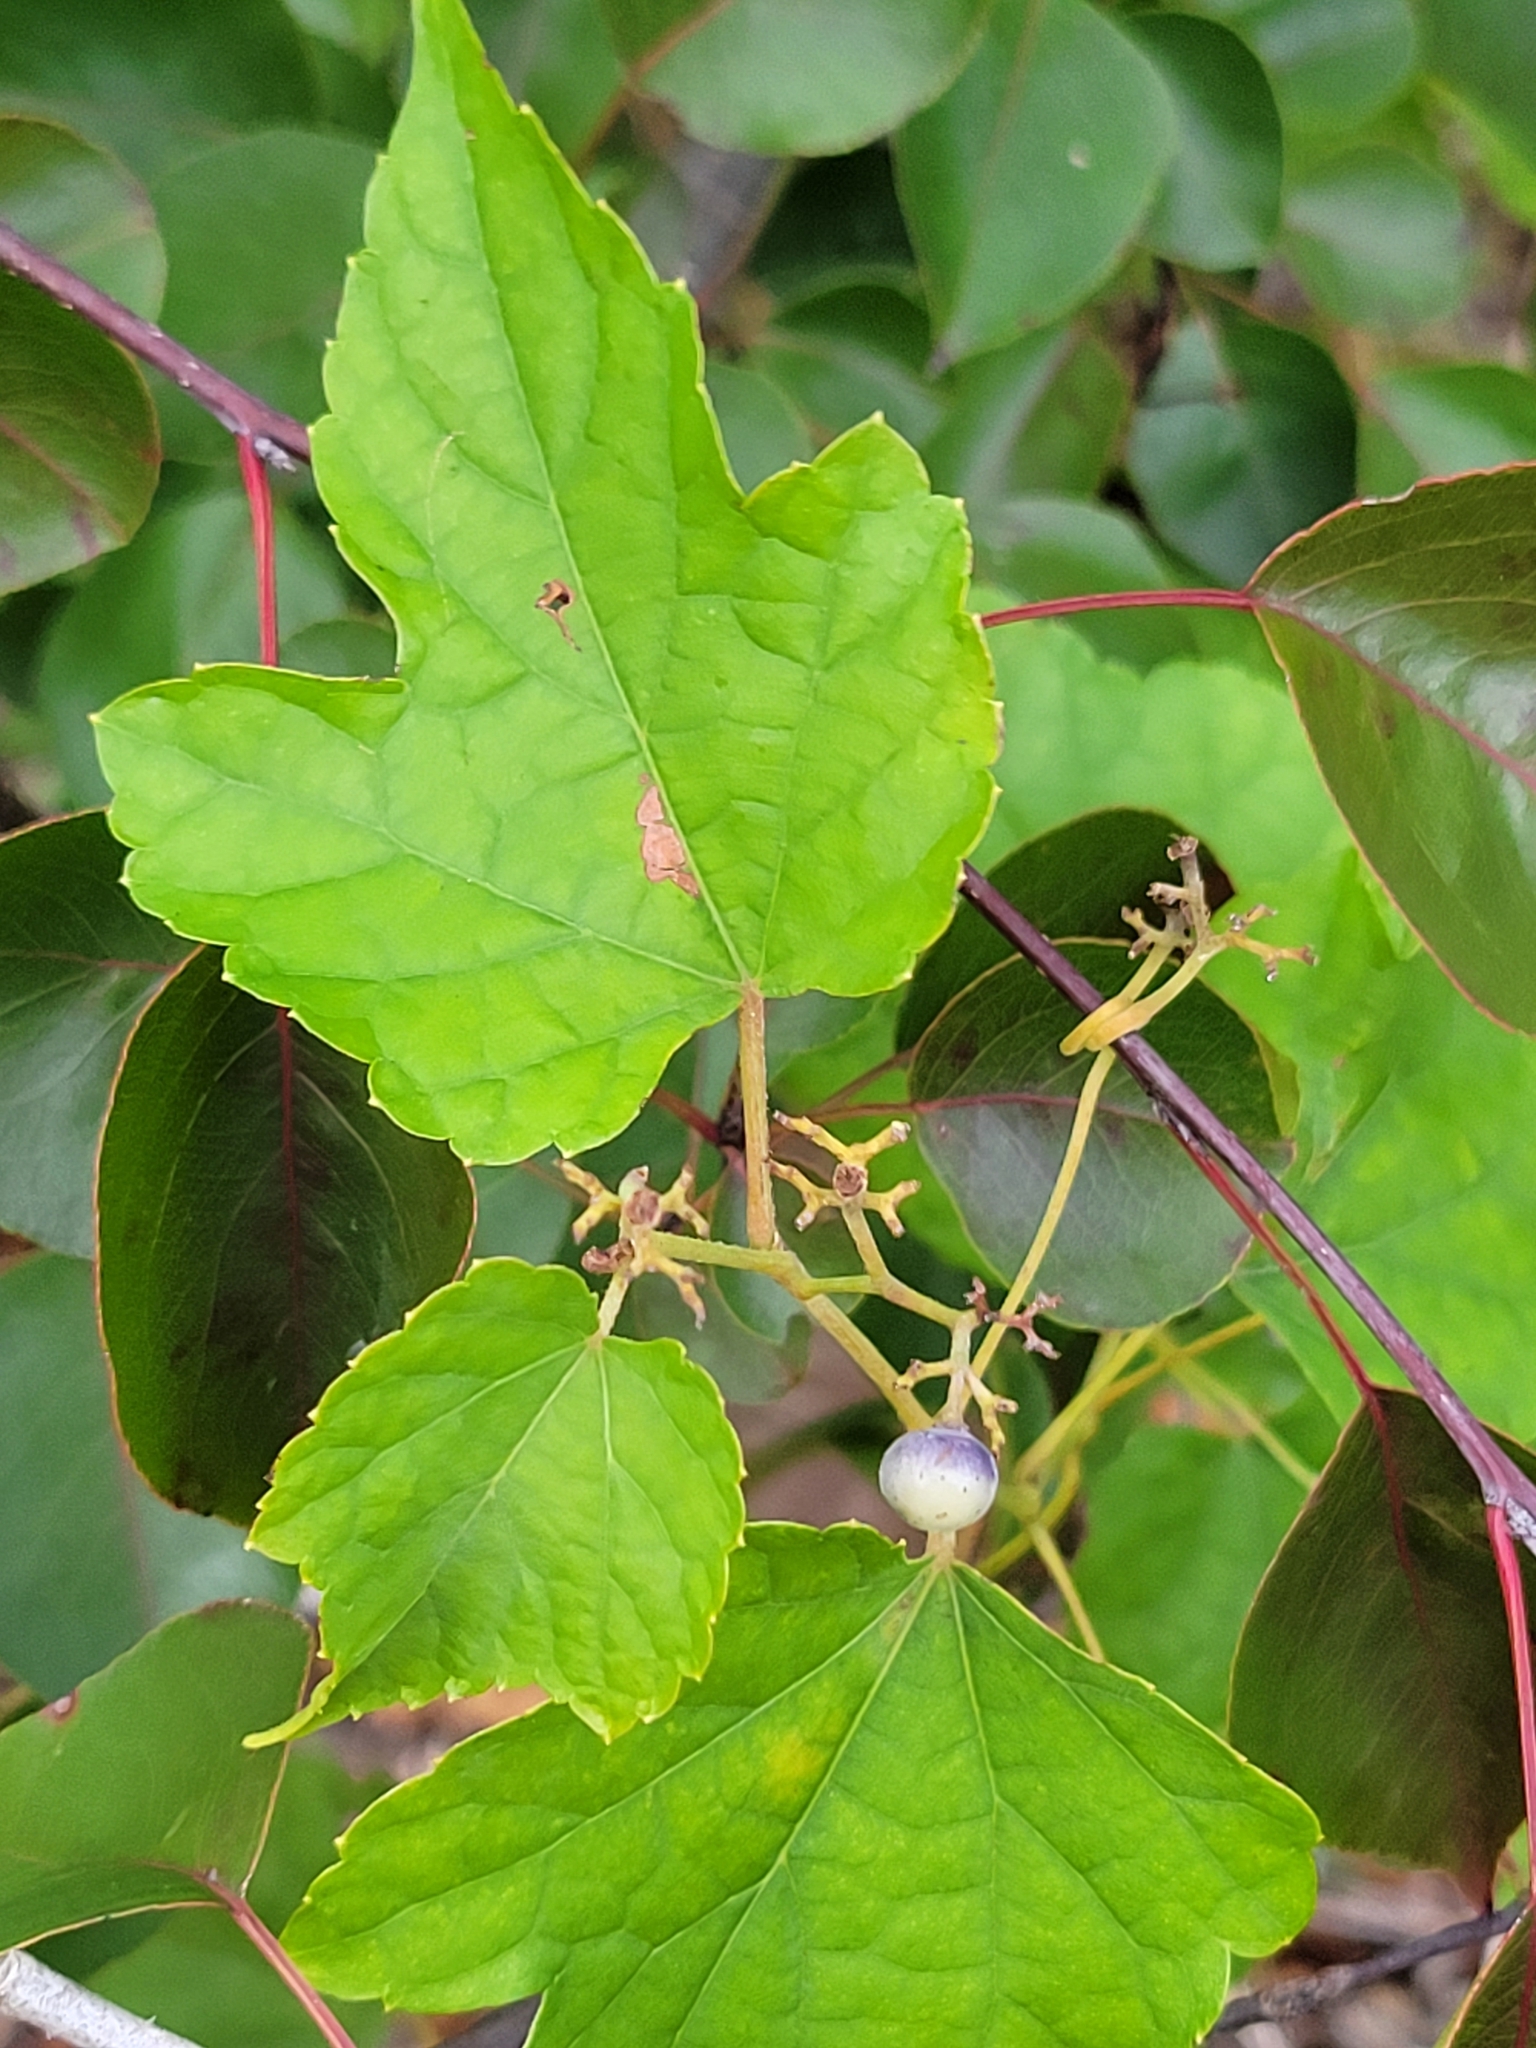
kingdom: Plantae
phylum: Tracheophyta
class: Magnoliopsida
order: Vitales
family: Vitaceae
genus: Ampelopsis
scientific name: Ampelopsis glandulosa
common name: Amur peppervine
